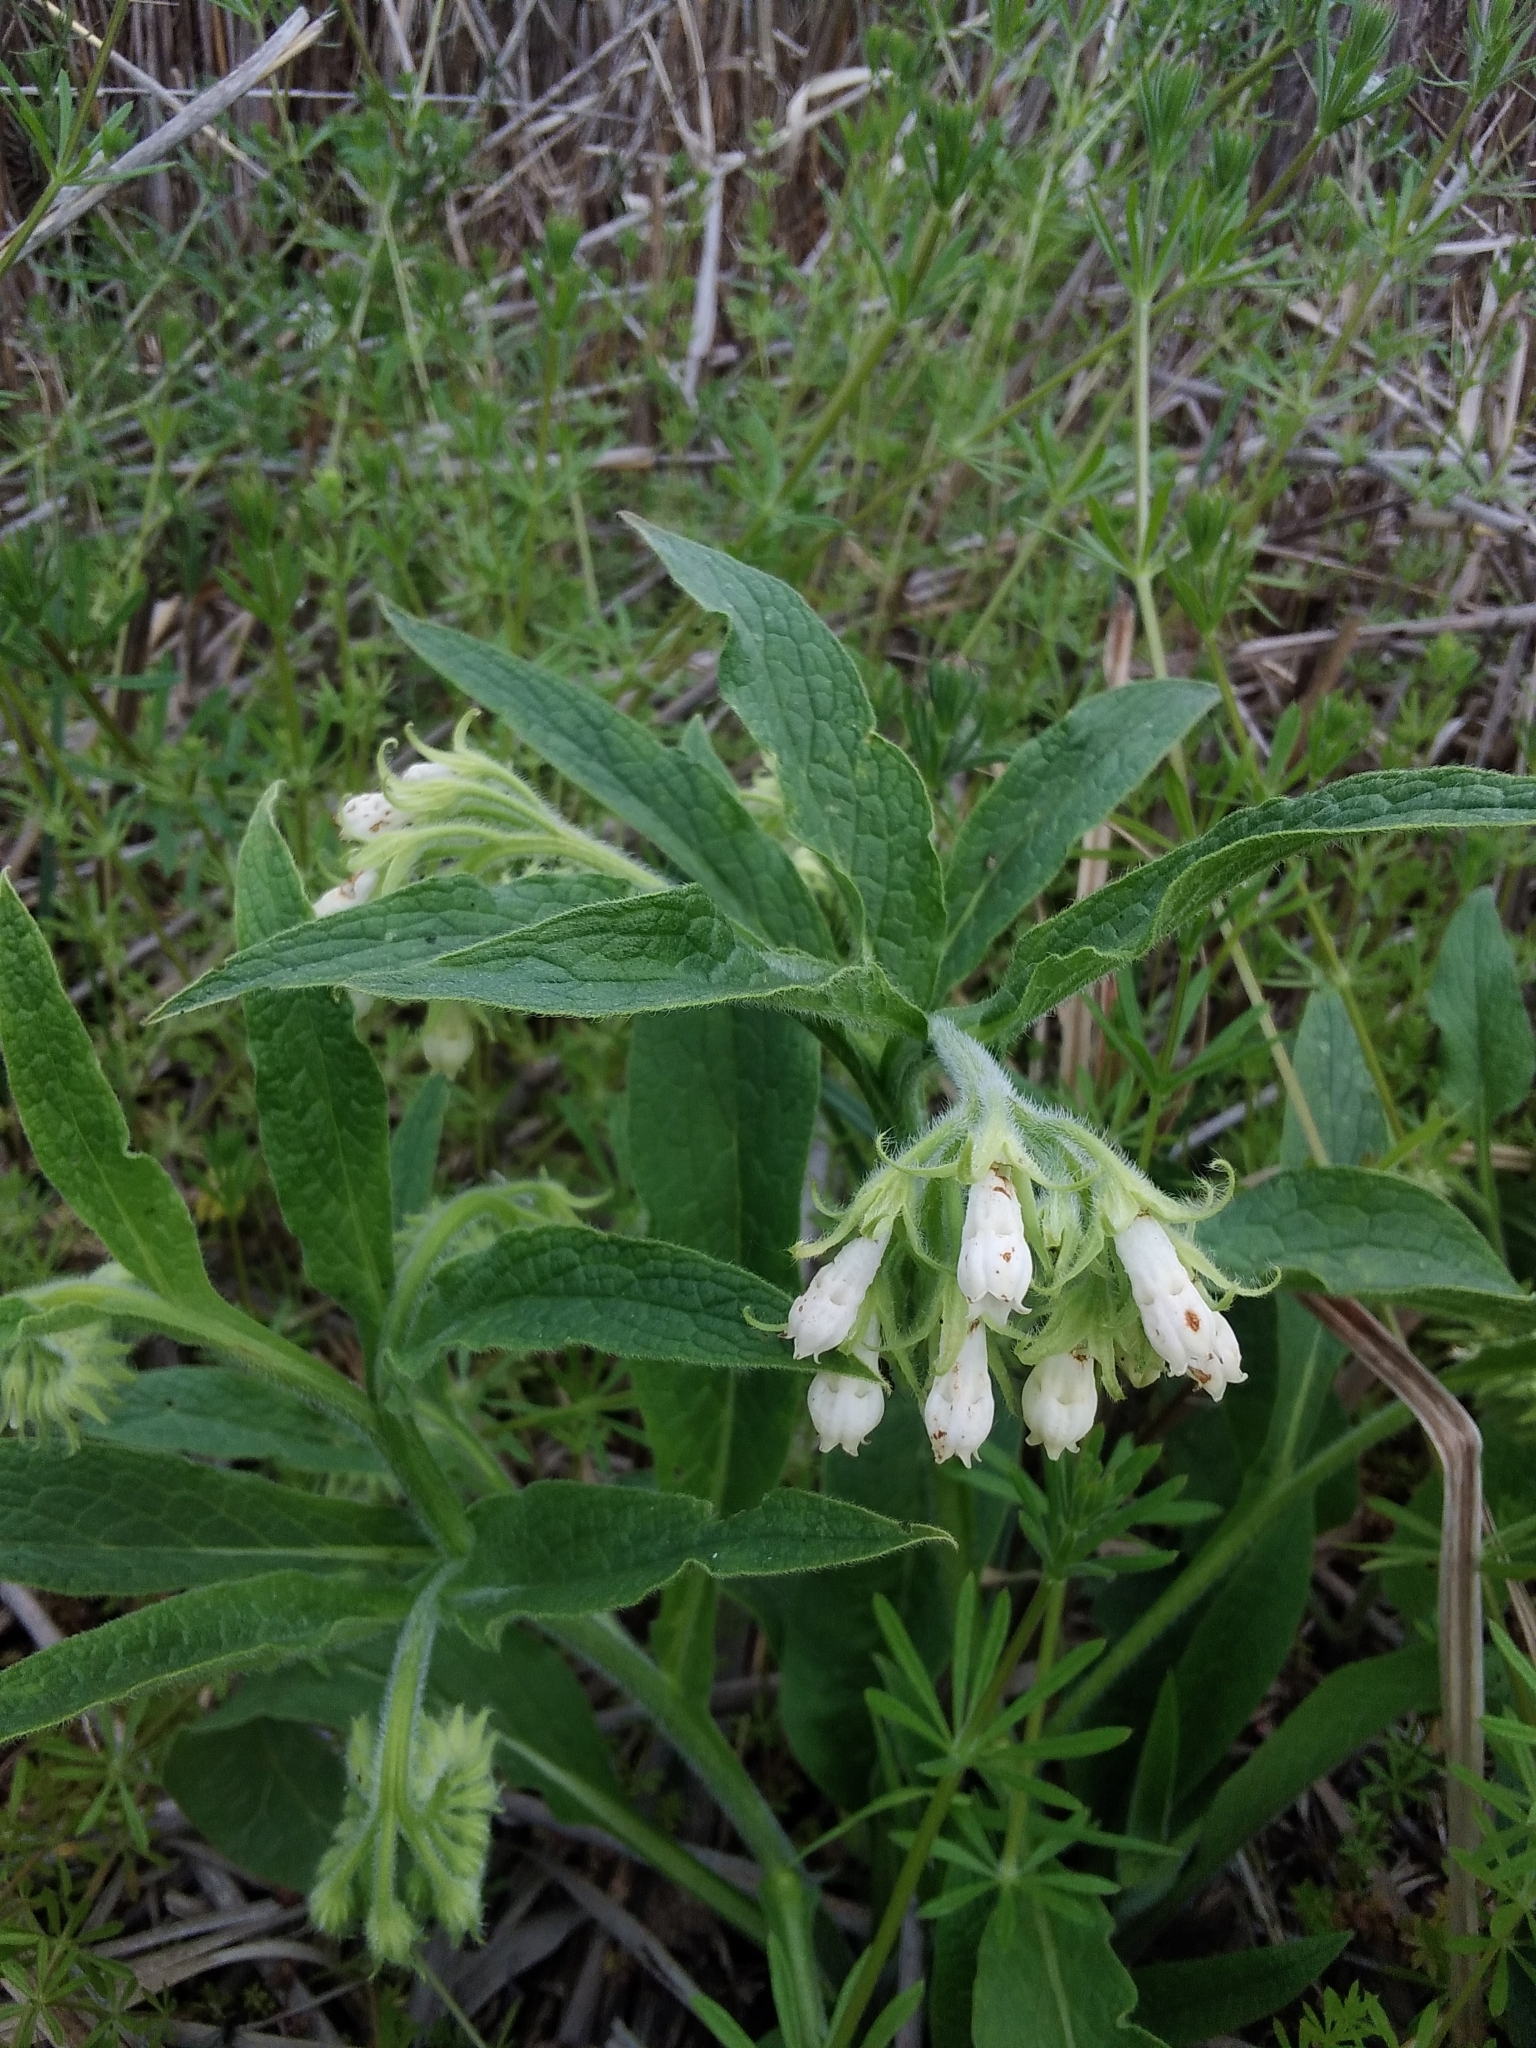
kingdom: Plantae
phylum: Tracheophyta
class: Magnoliopsida
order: Boraginales
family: Boraginaceae
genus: Symphytum
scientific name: Symphytum officinale
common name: Common comfrey
